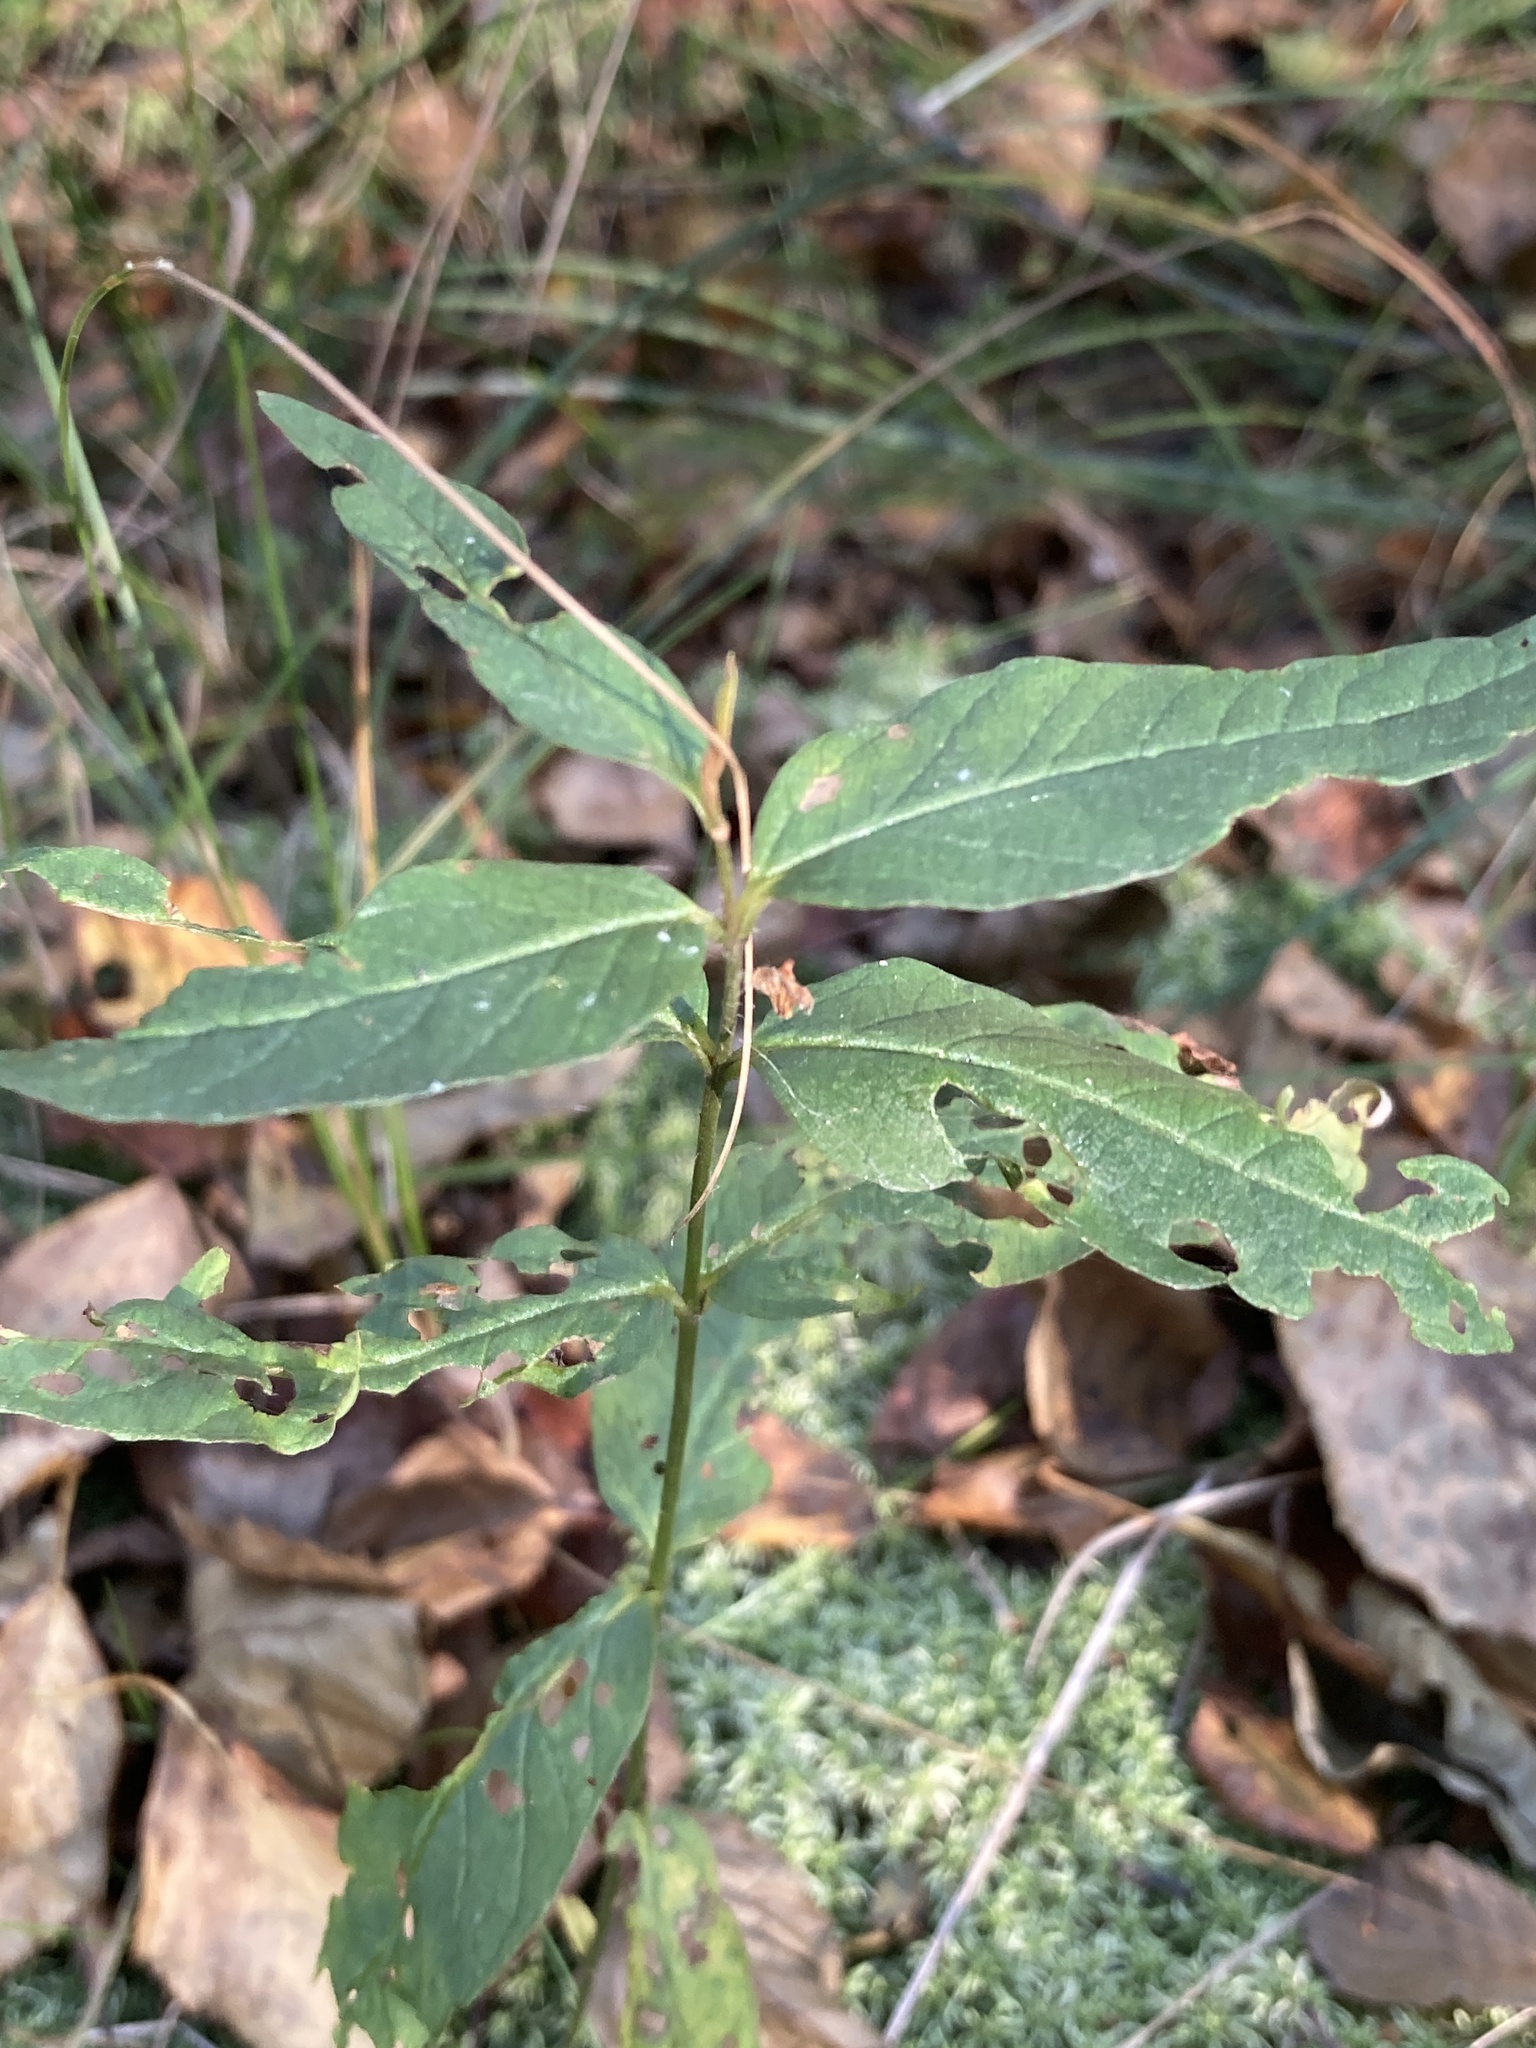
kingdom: Plantae
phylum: Tracheophyta
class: Magnoliopsida
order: Ericales
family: Primulaceae
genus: Lysimachia
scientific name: Lysimachia vulgaris
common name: Yellow loosestrife
